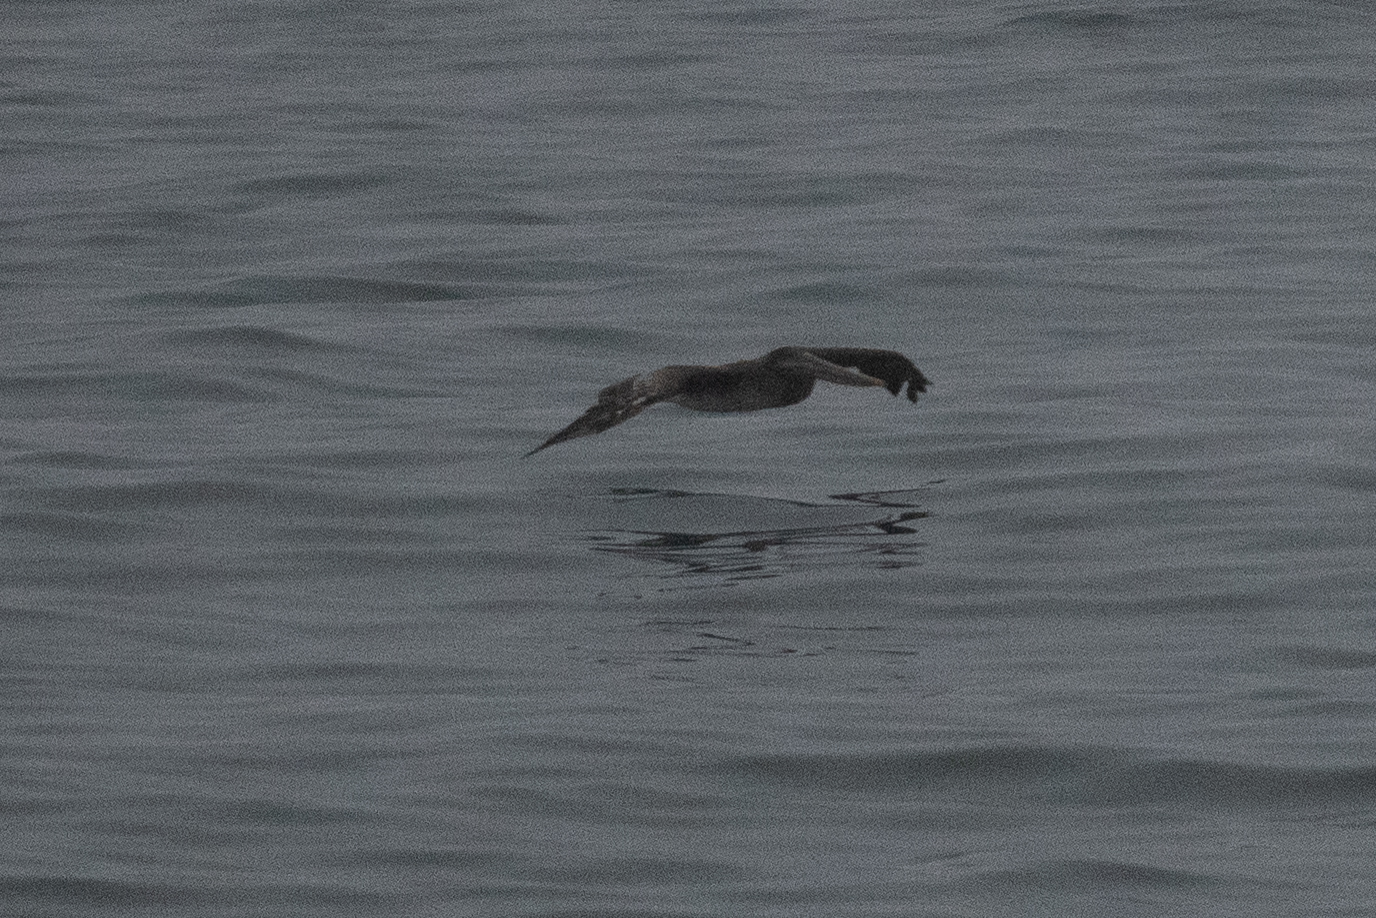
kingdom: Animalia
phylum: Chordata
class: Aves
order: Pelecaniformes
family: Pelecanidae
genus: Pelecanus
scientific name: Pelecanus occidentalis
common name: Brown pelican
